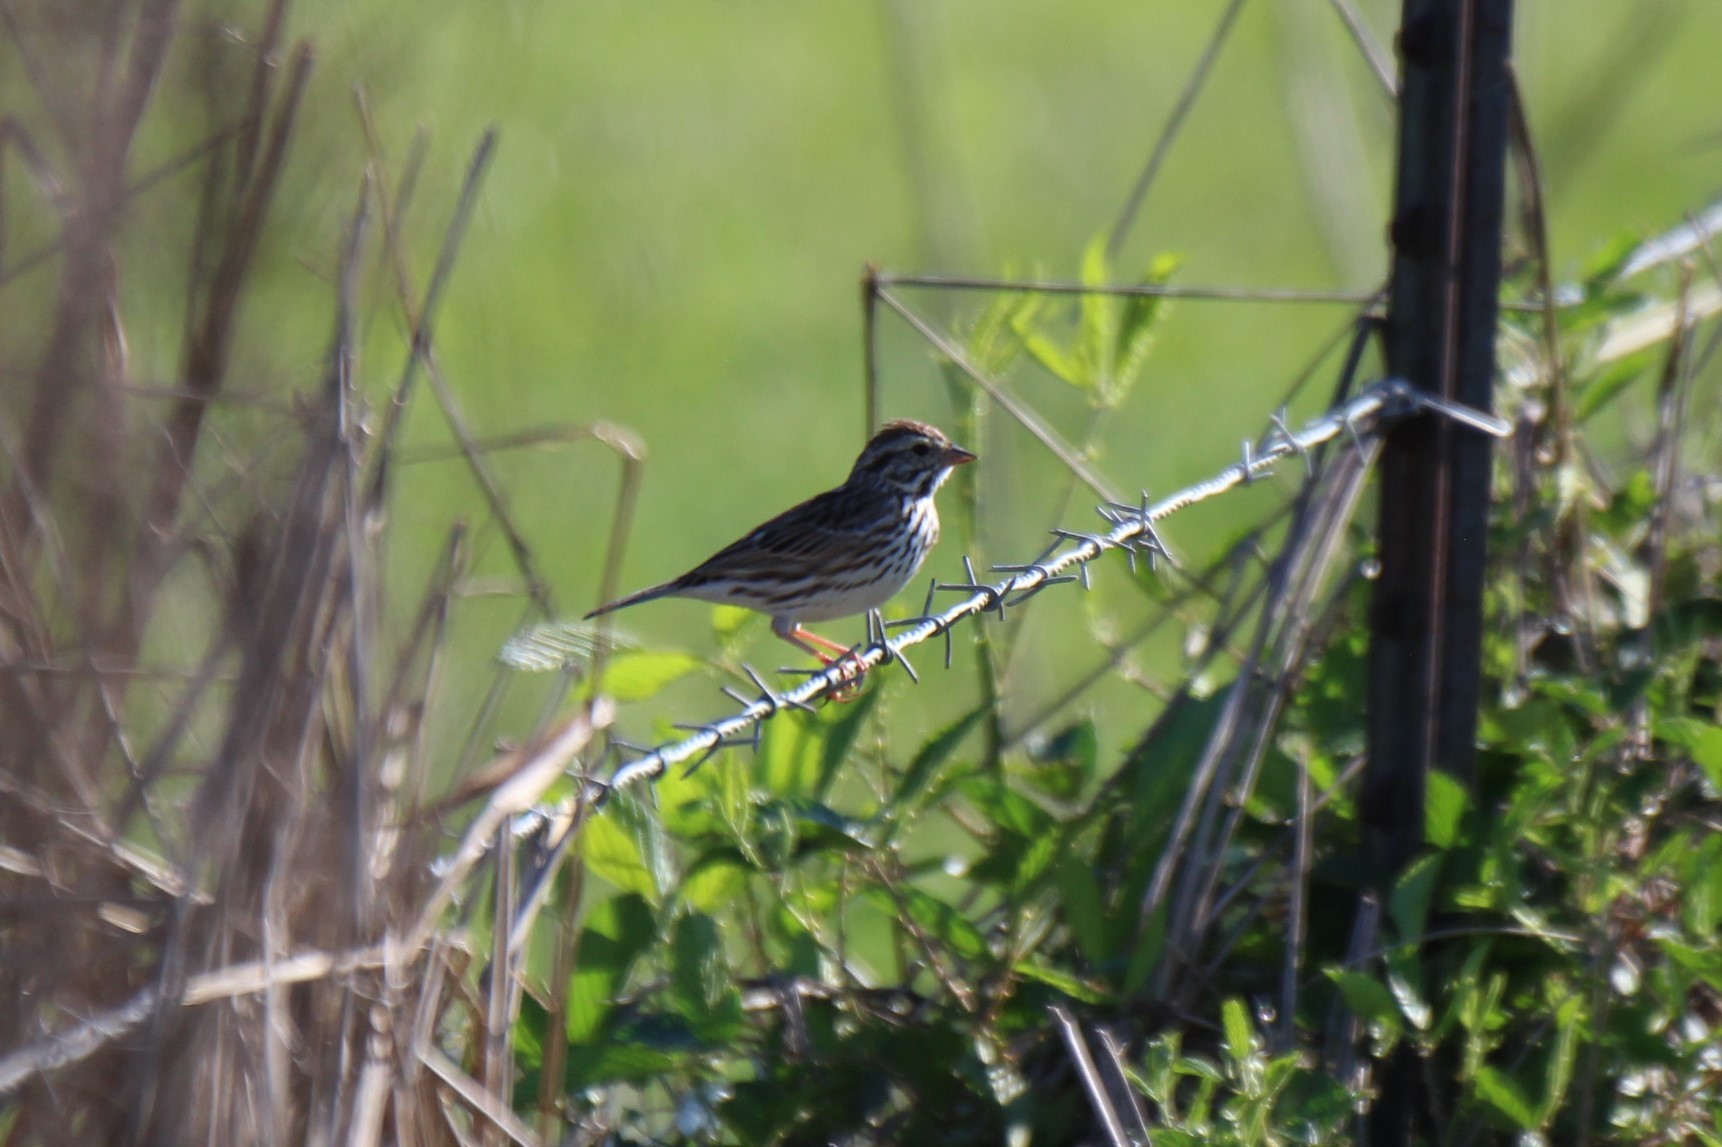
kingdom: Animalia
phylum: Chordata
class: Aves
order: Passeriformes
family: Passerellidae
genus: Passerculus
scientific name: Passerculus sandwichensis
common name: Savannah sparrow
